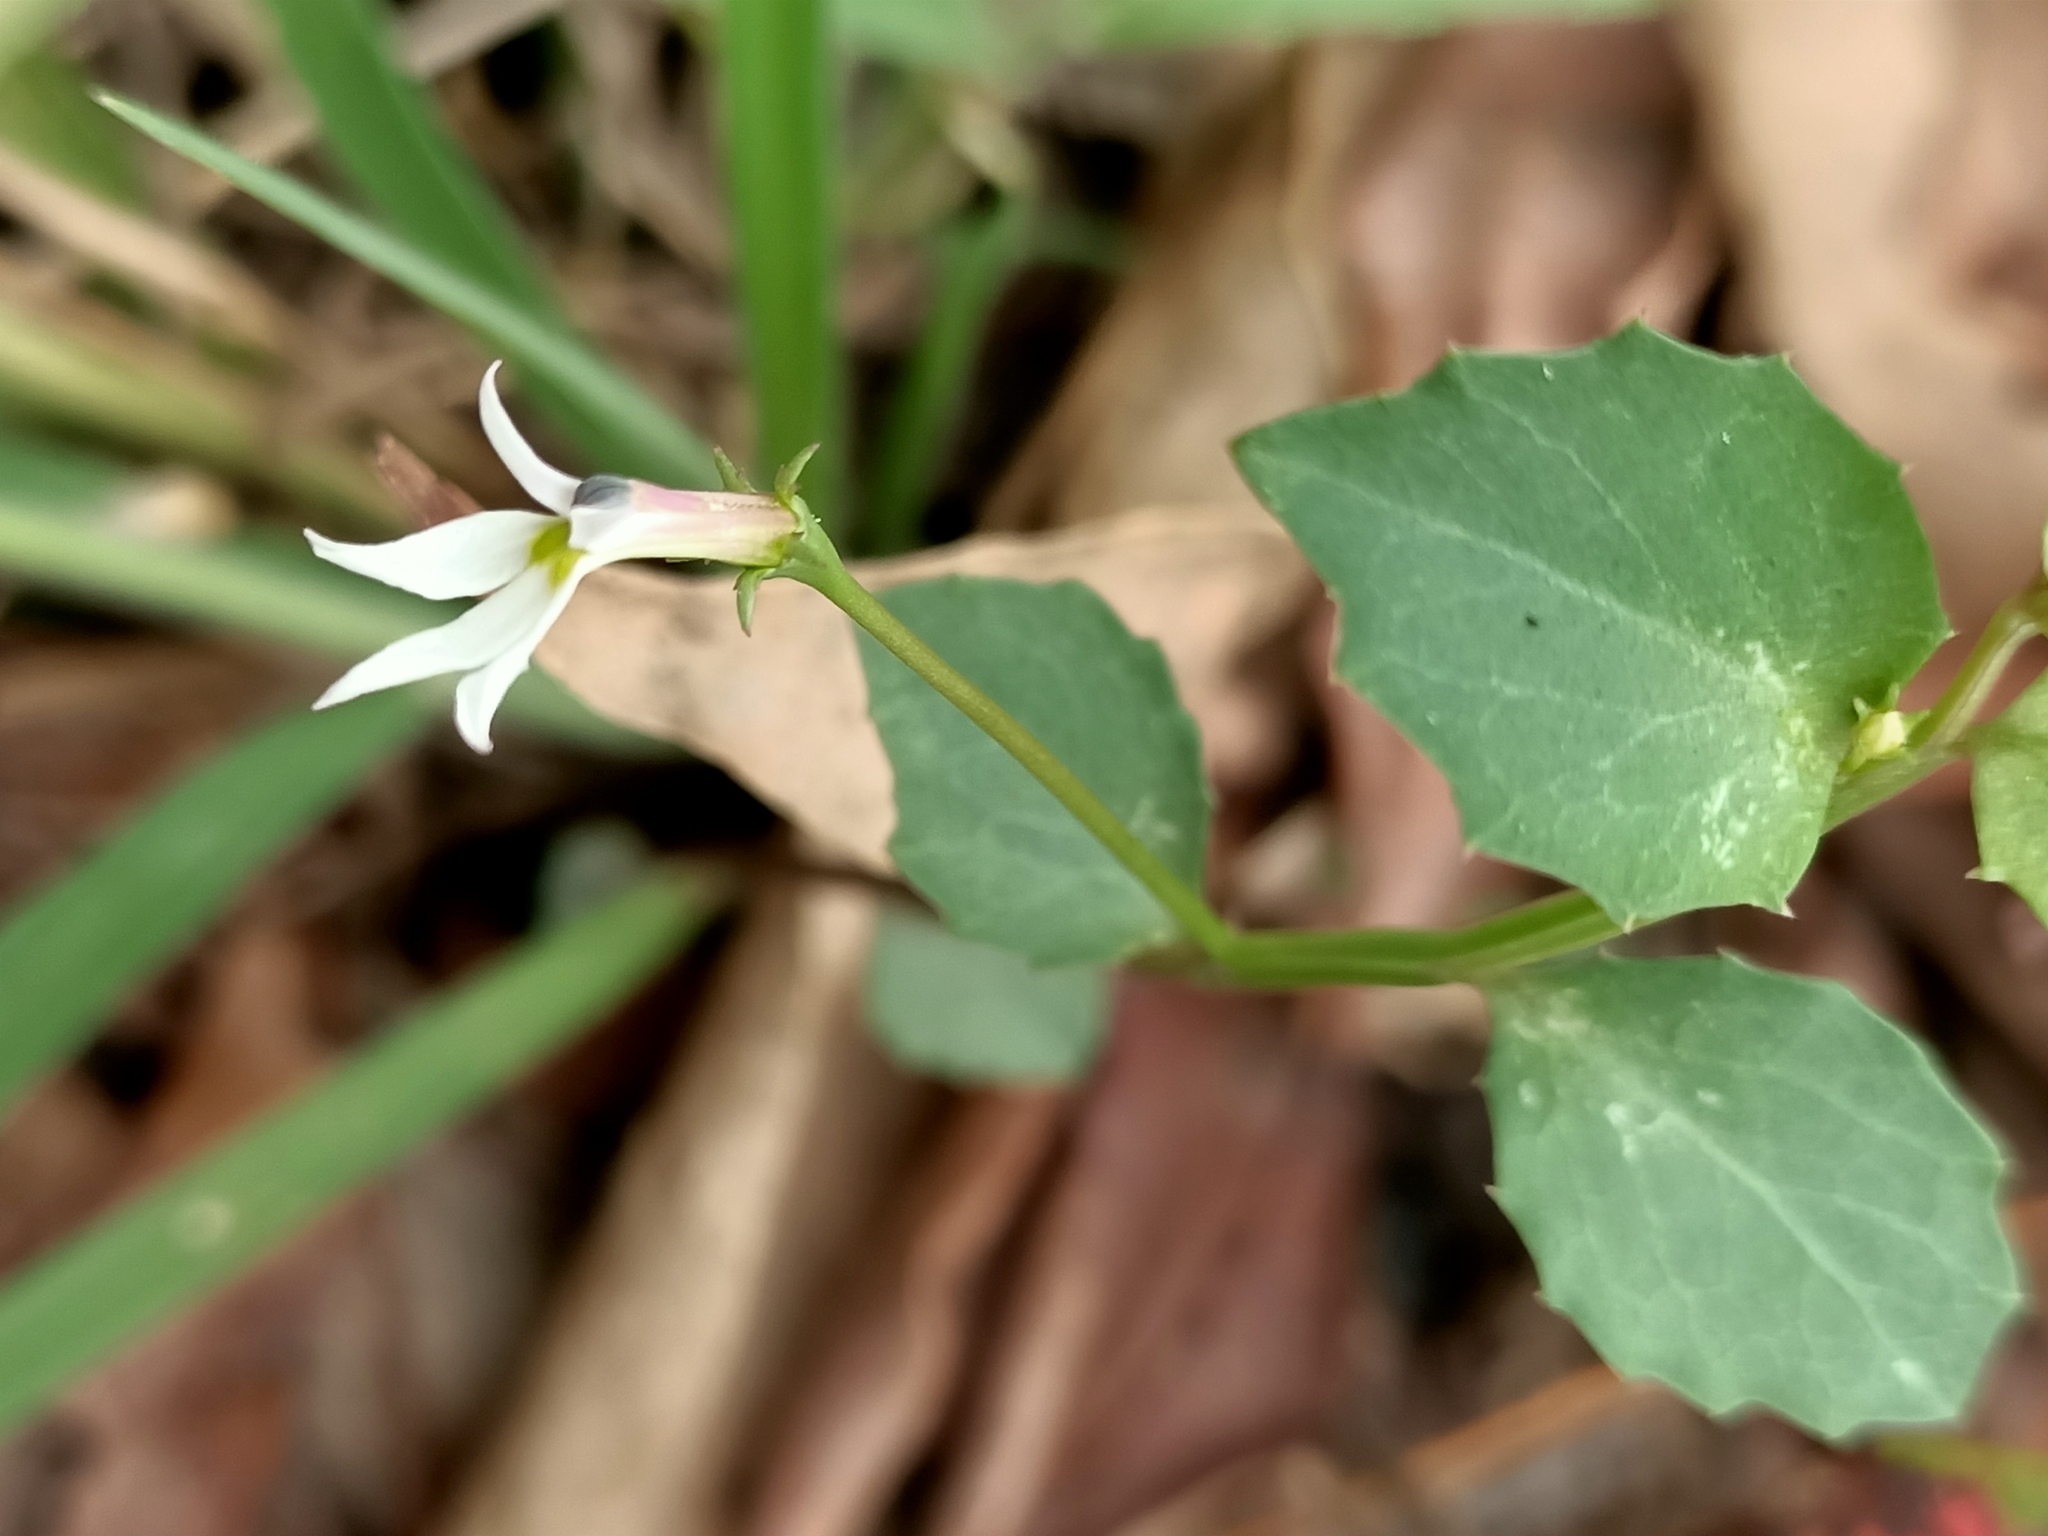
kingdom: Plantae
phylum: Tracheophyta
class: Magnoliopsida
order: Asterales
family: Campanulaceae
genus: Lobelia
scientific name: Lobelia purpurascens
